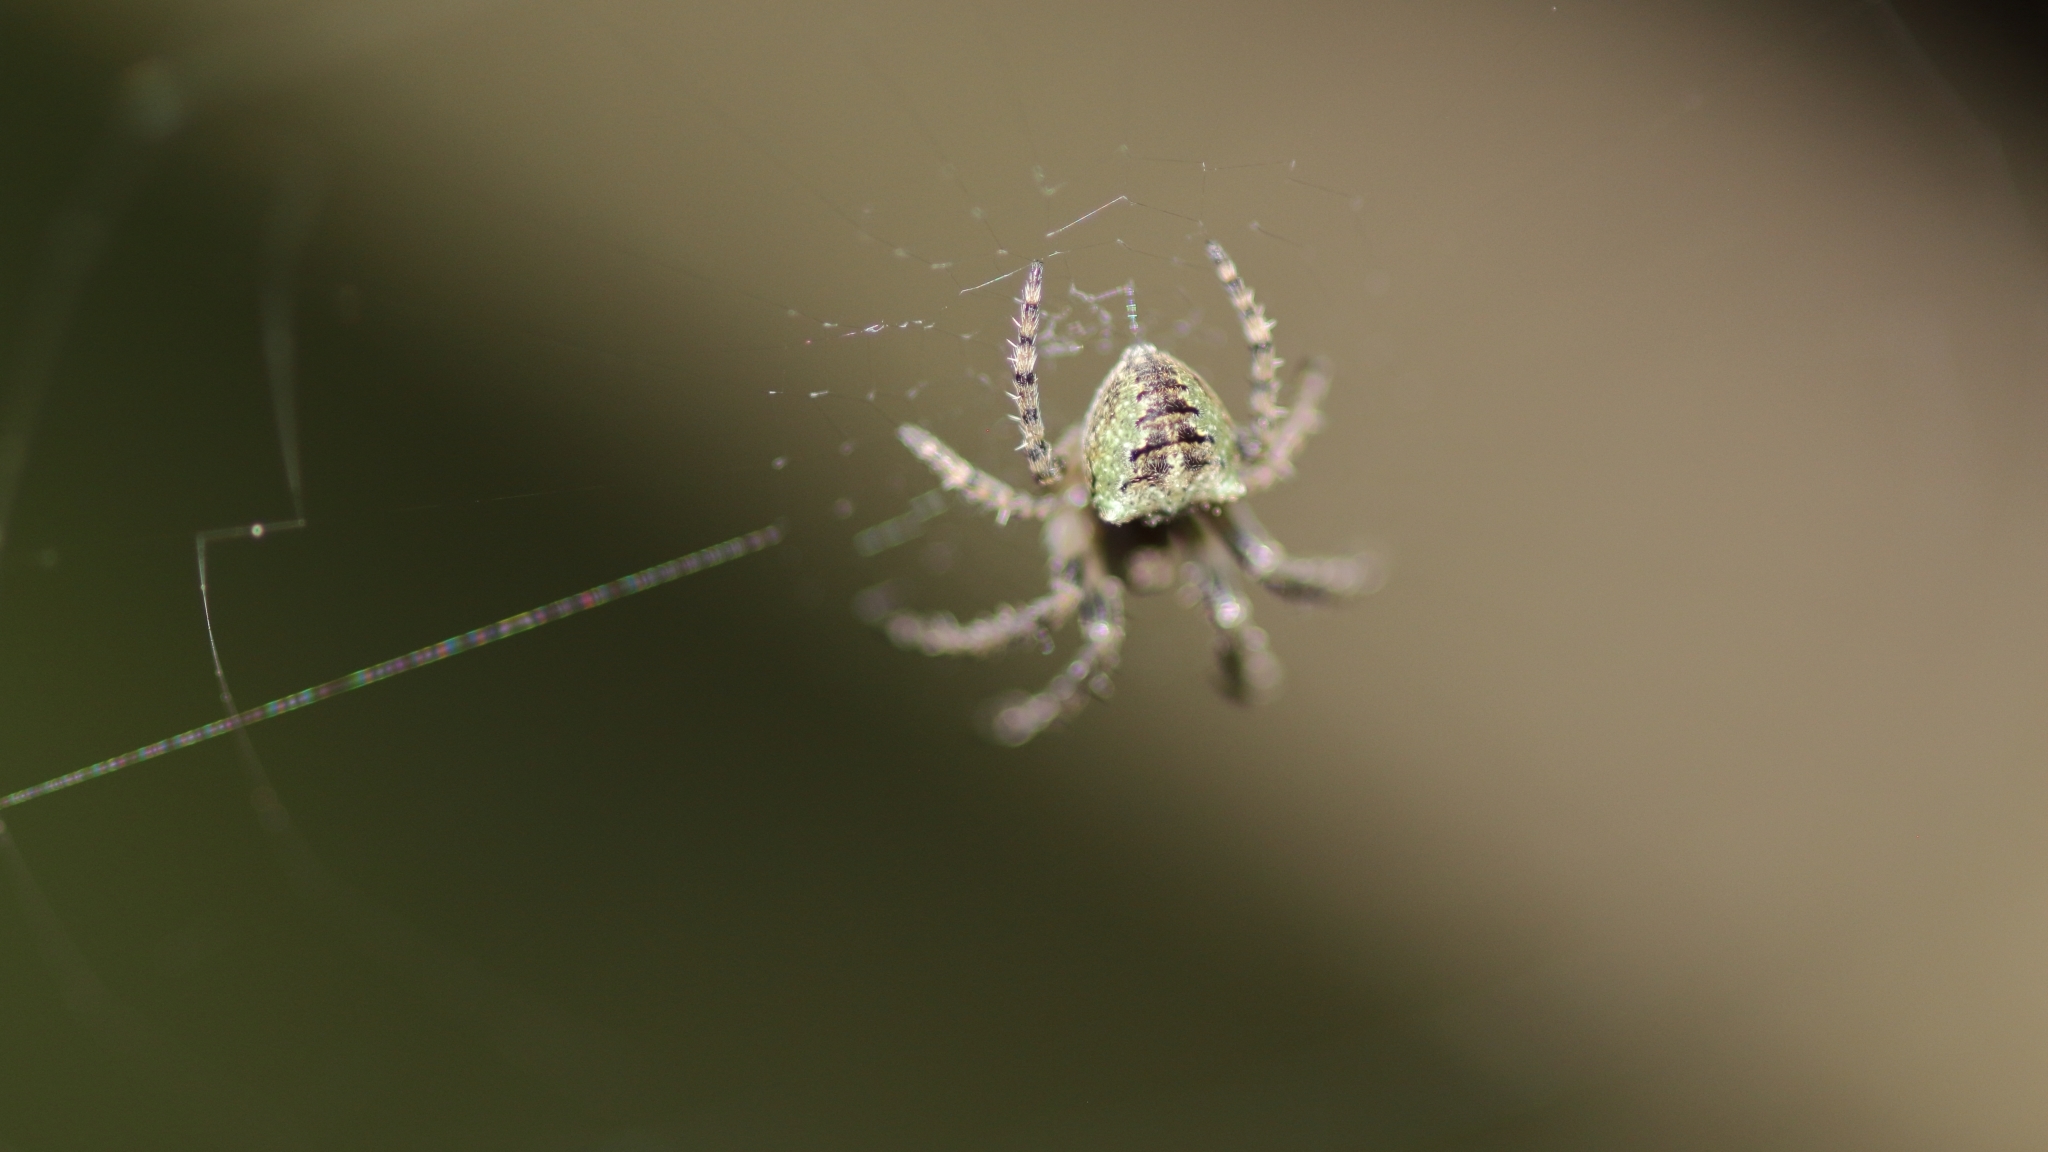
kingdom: Animalia
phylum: Arthropoda
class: Arachnida
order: Araneae
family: Araneidae
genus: Gibbaranea
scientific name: Gibbaranea gibbosa
